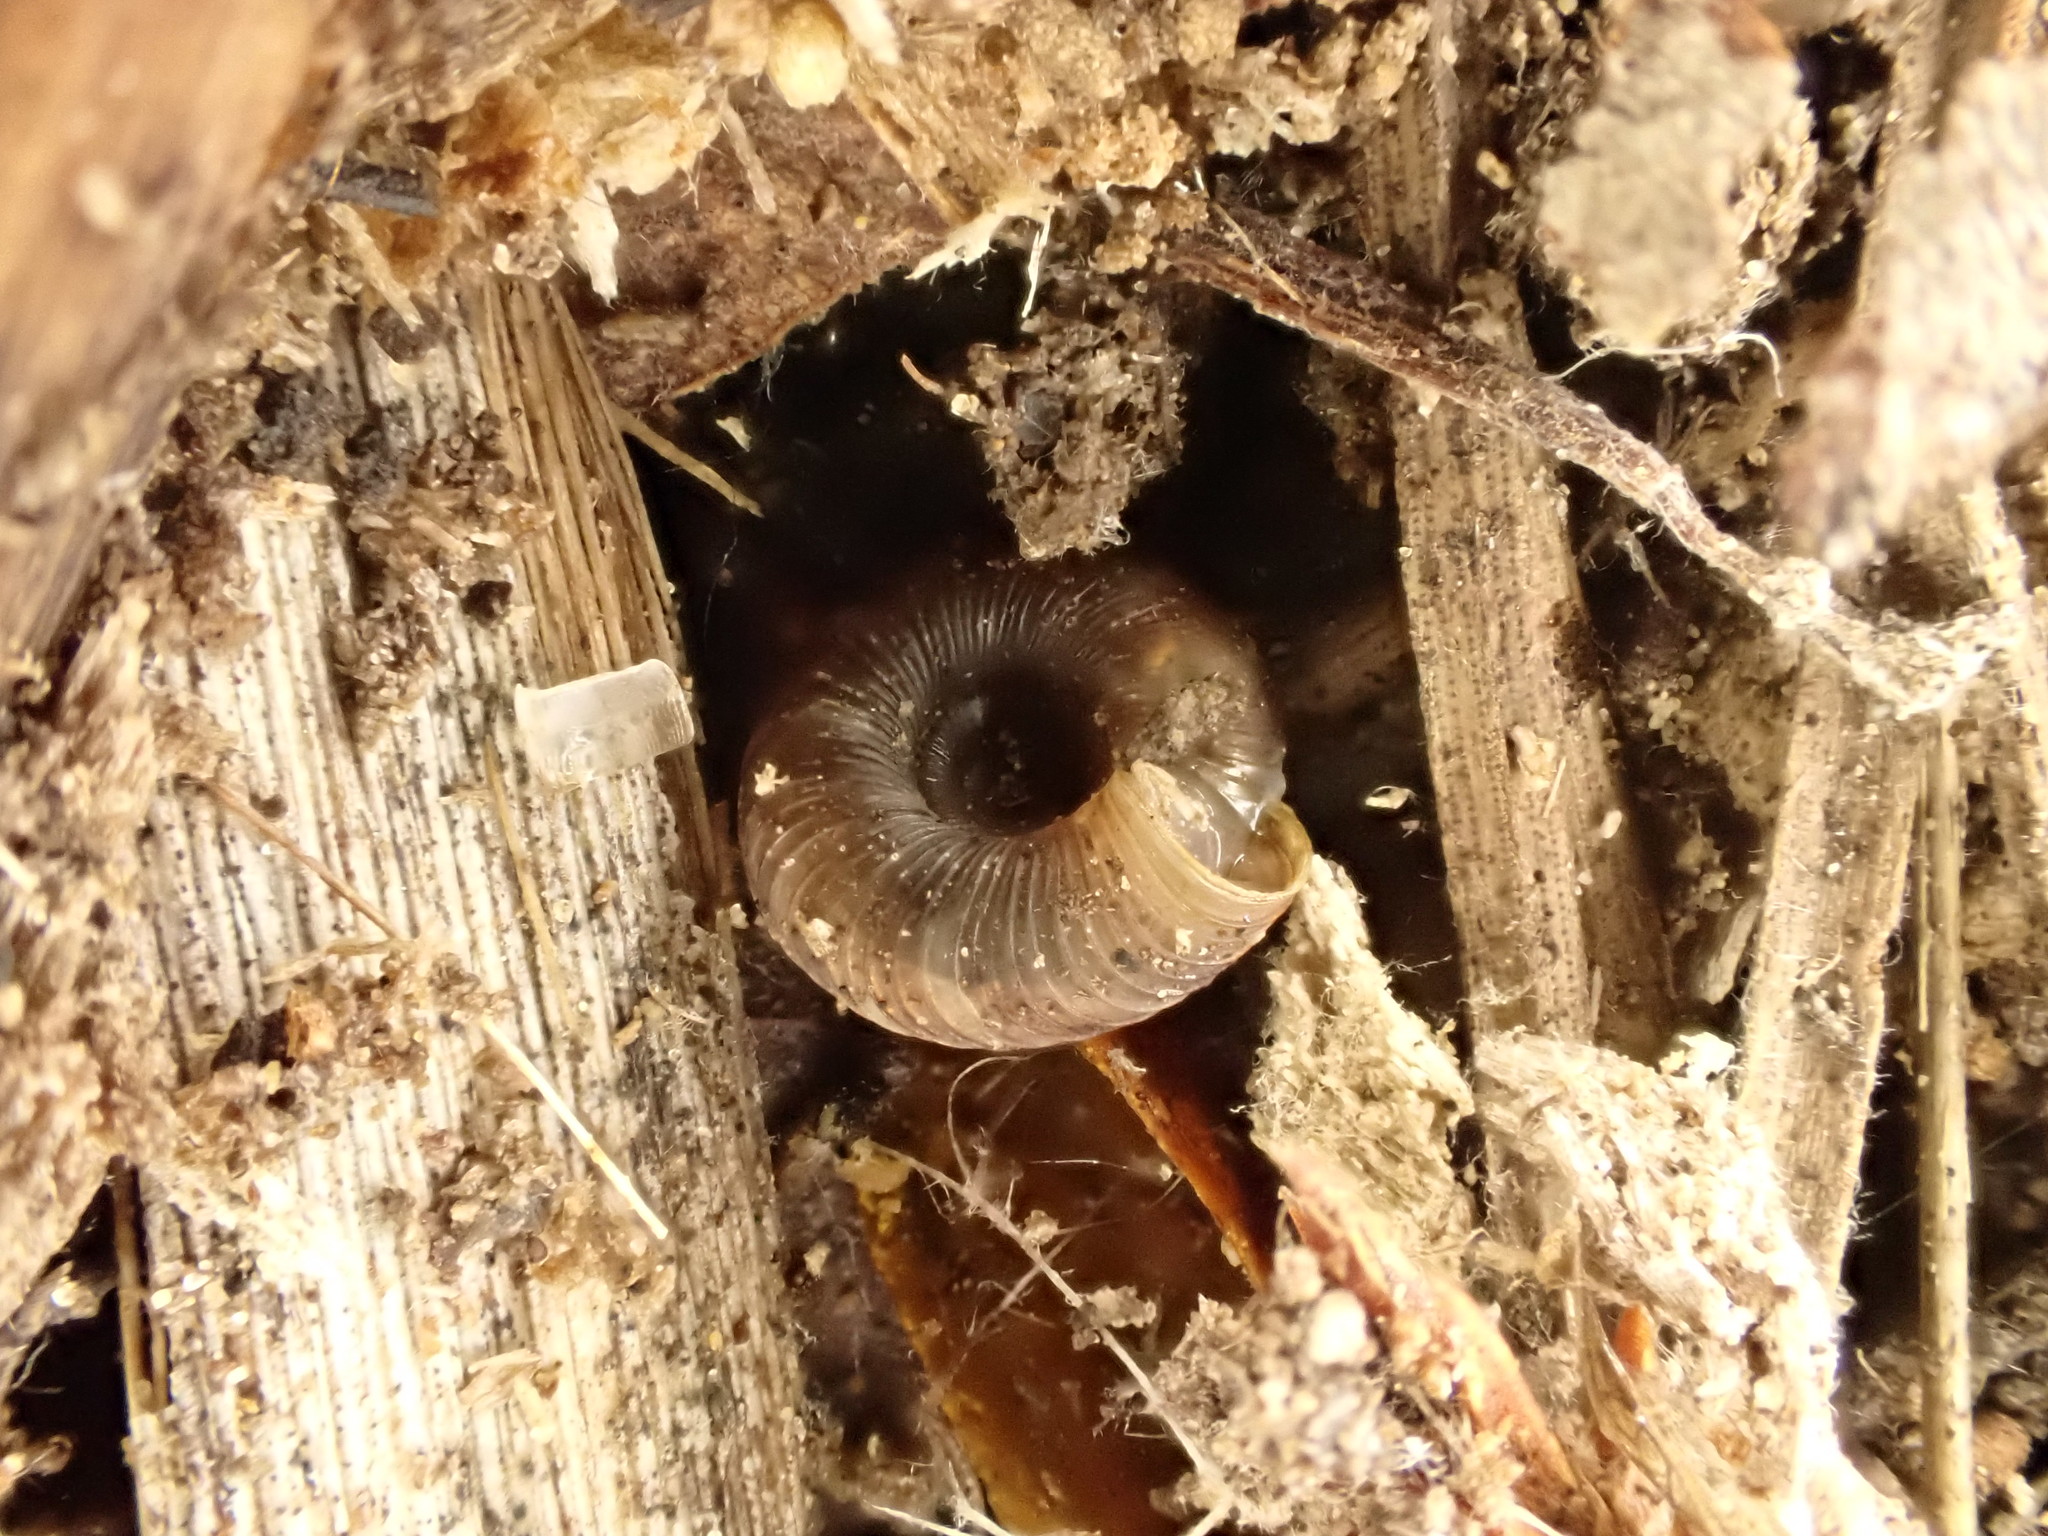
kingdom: Animalia
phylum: Mollusca
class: Gastropoda
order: Stylommatophora
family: Charopidae
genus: Charopa
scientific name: Charopa
